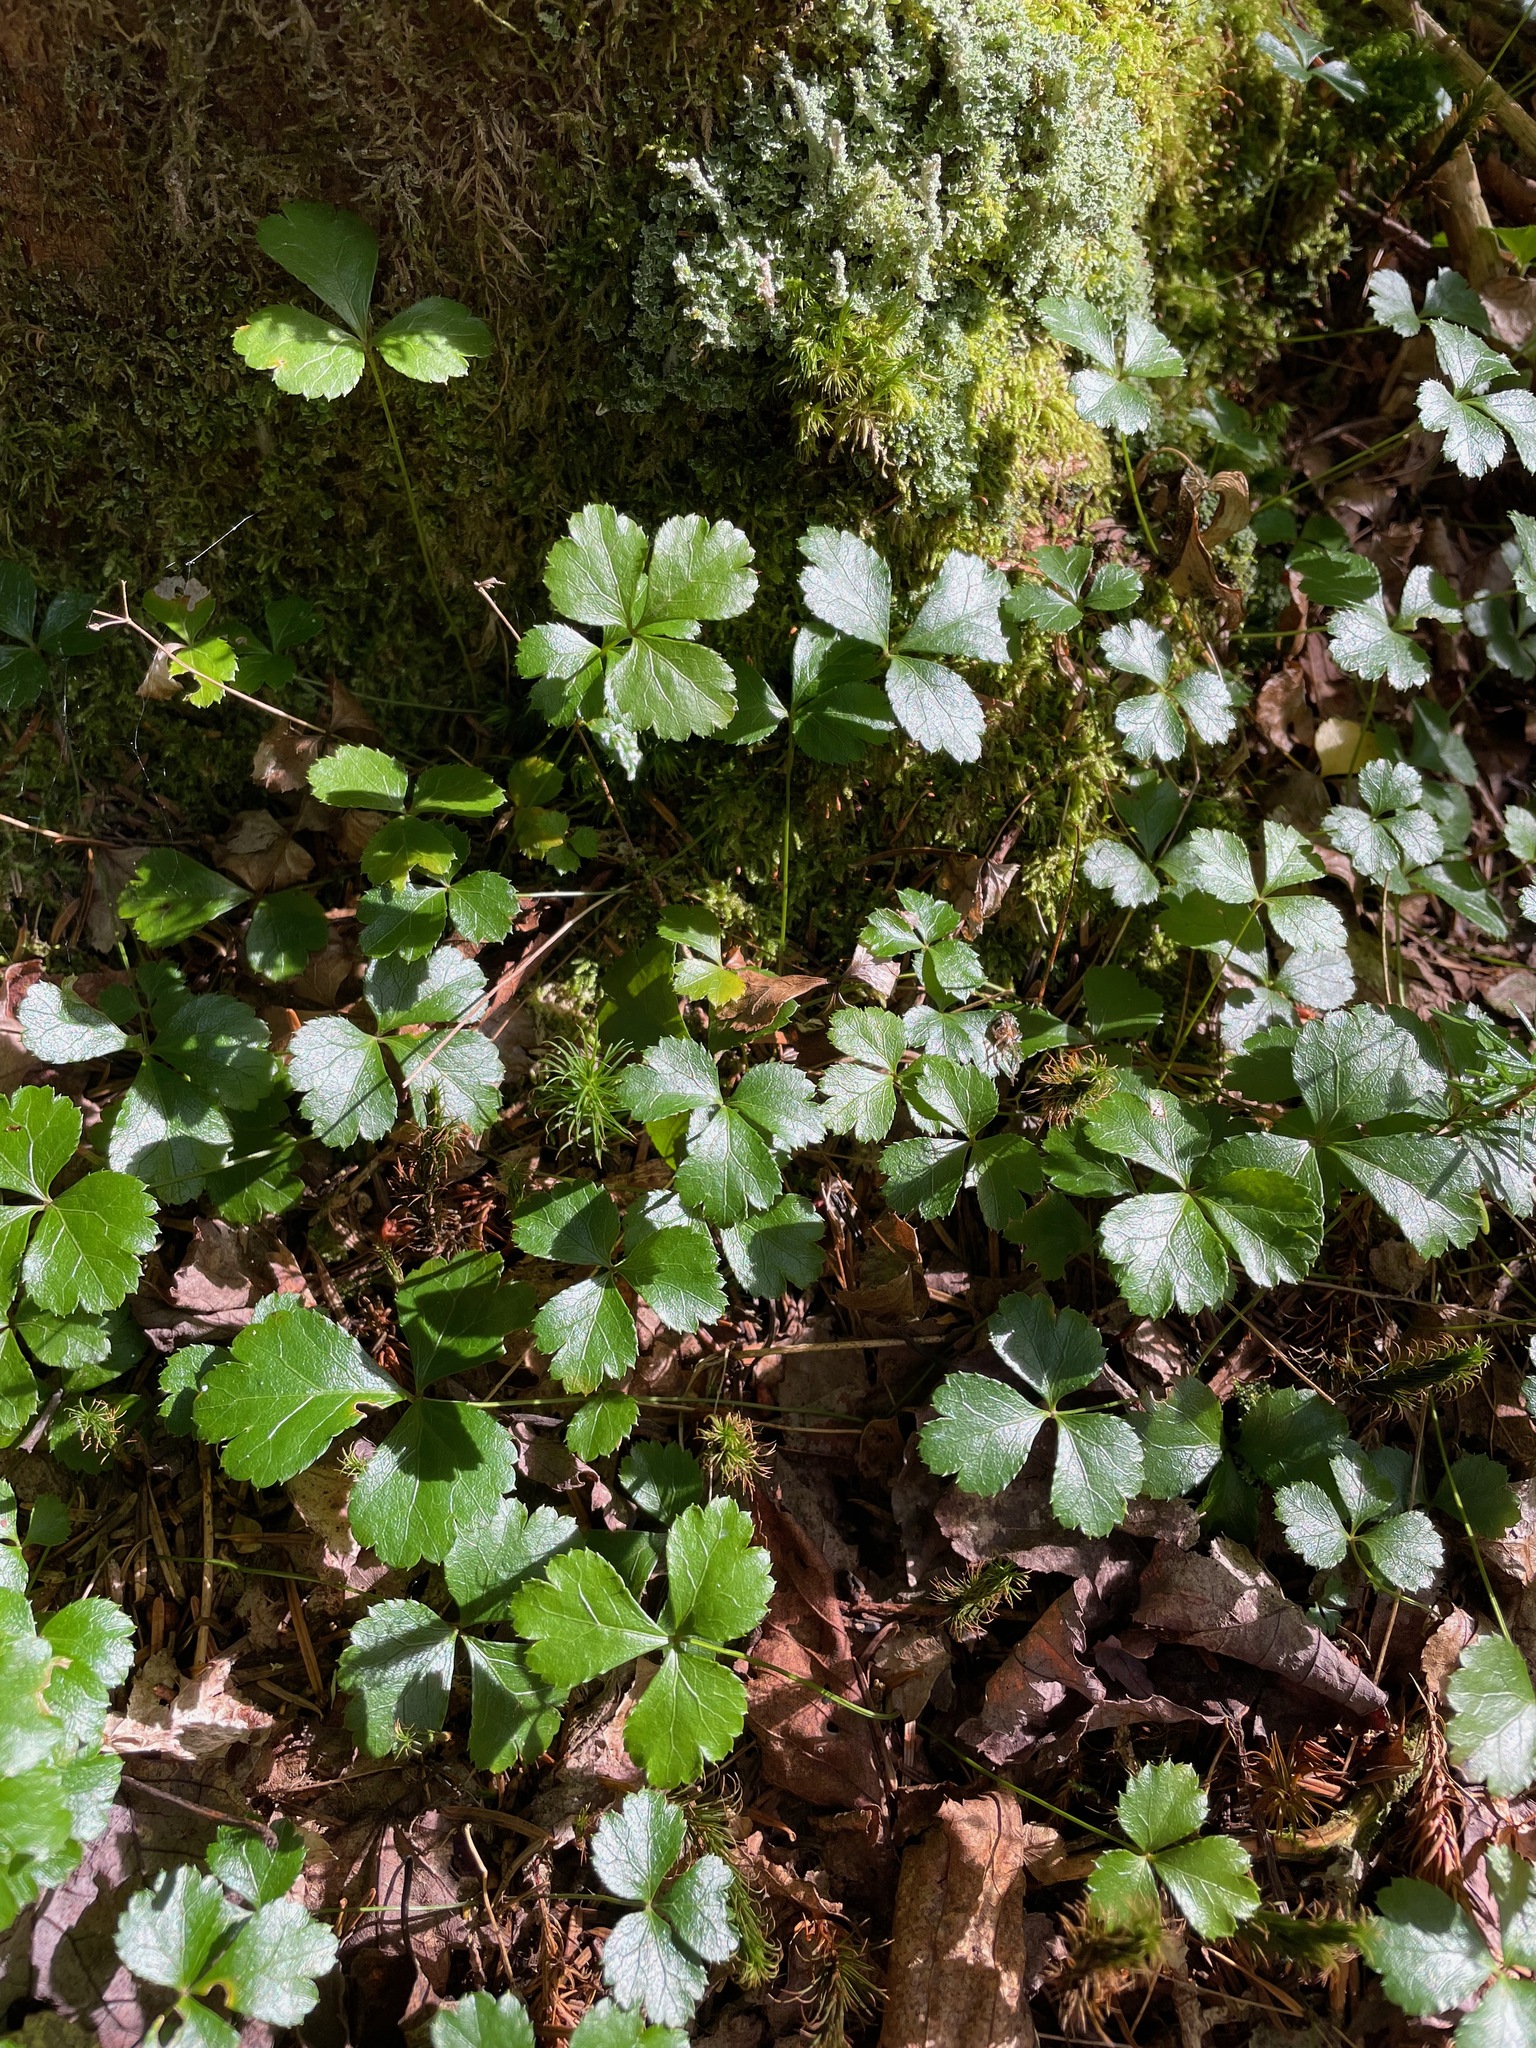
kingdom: Plantae
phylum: Tracheophyta
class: Magnoliopsida
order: Ranunculales
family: Ranunculaceae
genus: Coptis
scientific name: Coptis trifolia
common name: Canker-root
